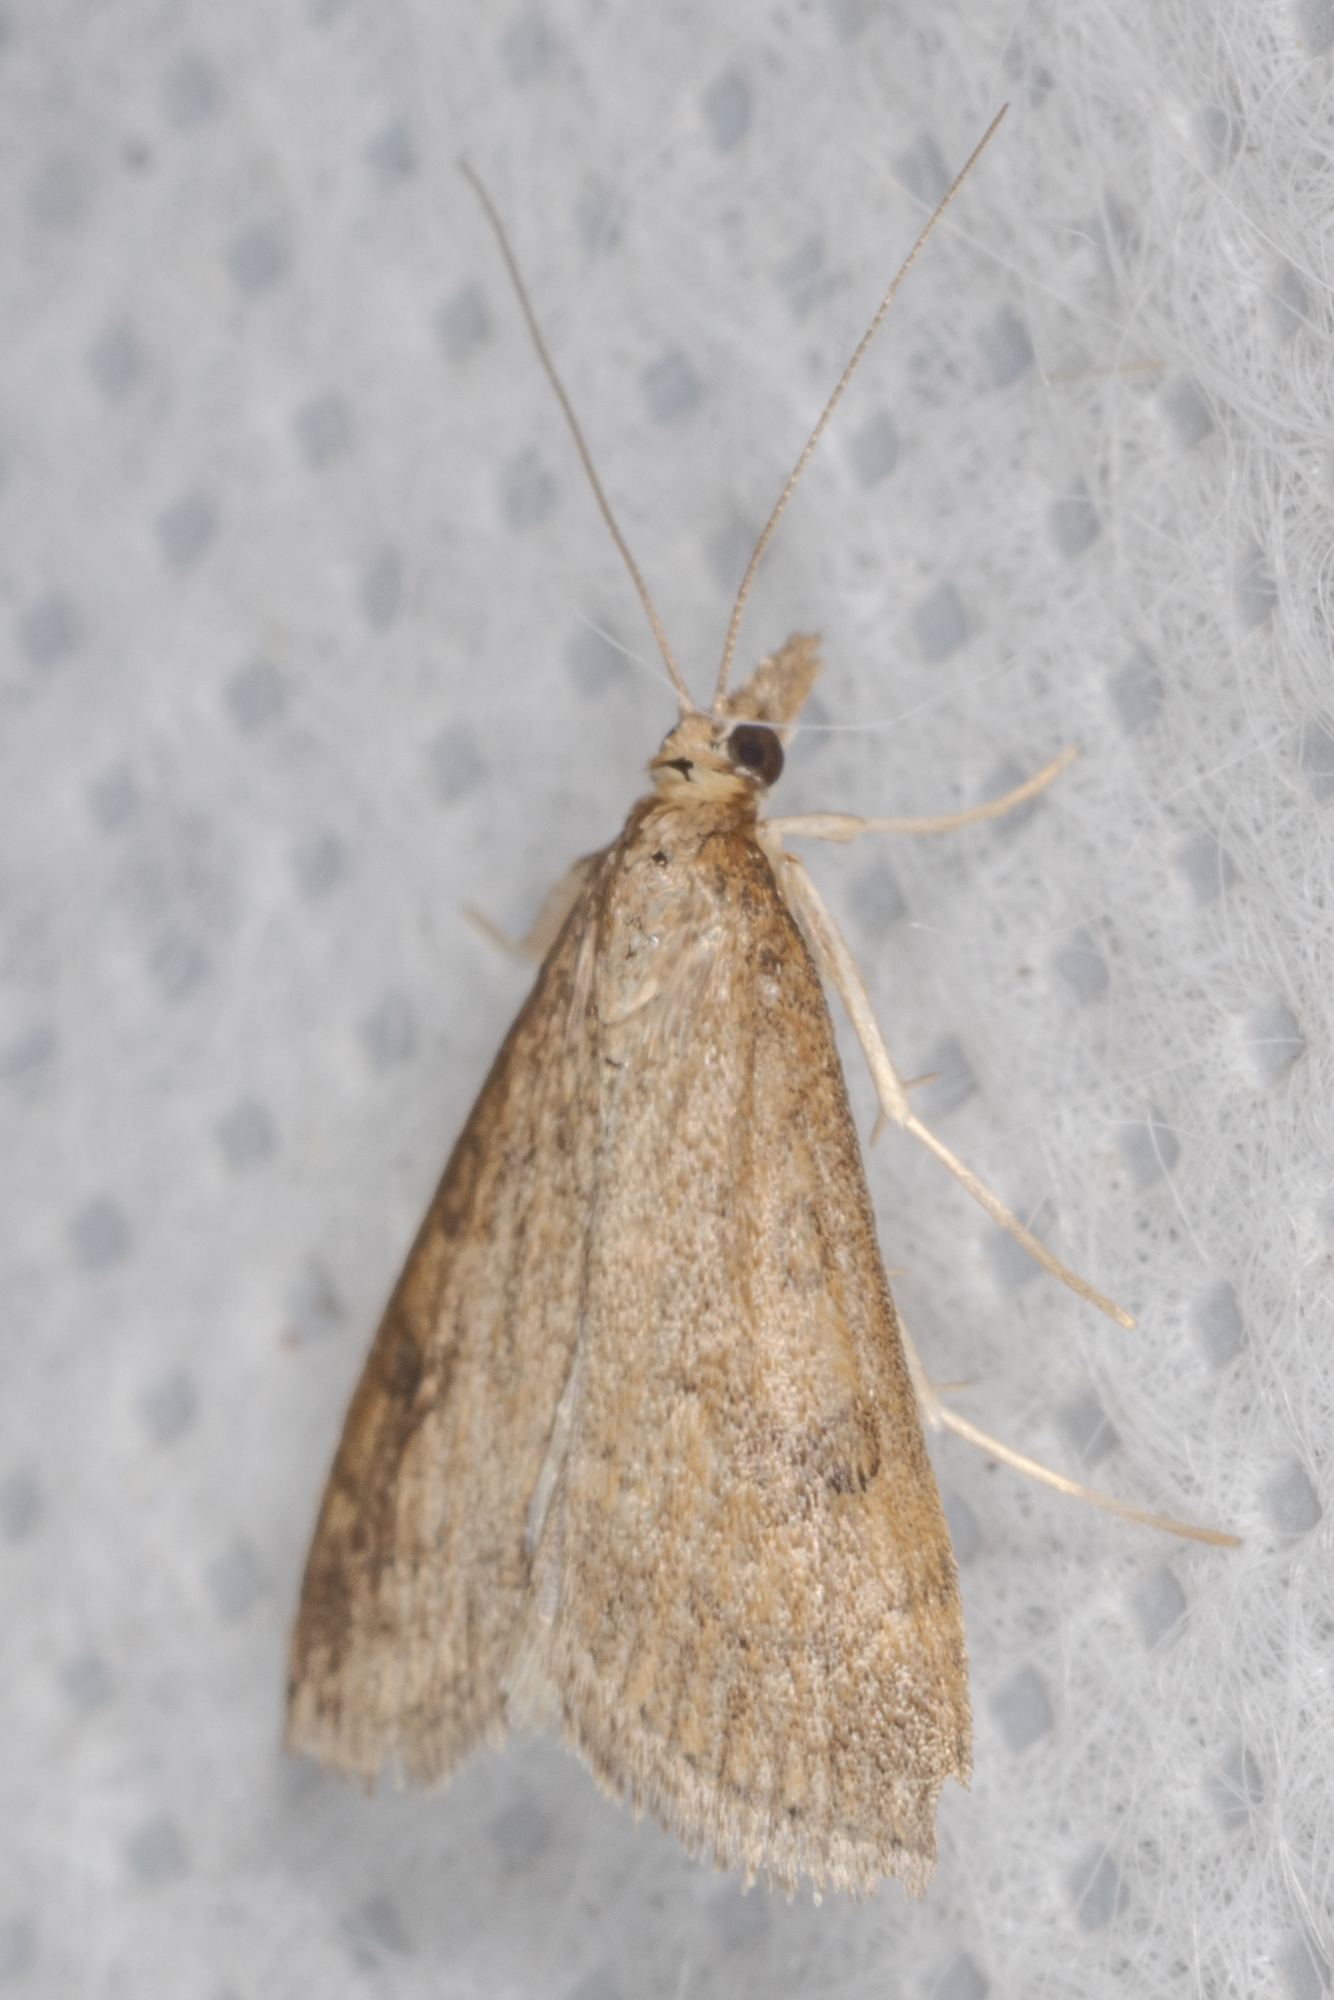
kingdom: Animalia
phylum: Arthropoda
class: Insecta
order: Lepidoptera
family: Crambidae
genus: Udea
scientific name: Udea rubigalis
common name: Celery leaftier moth
